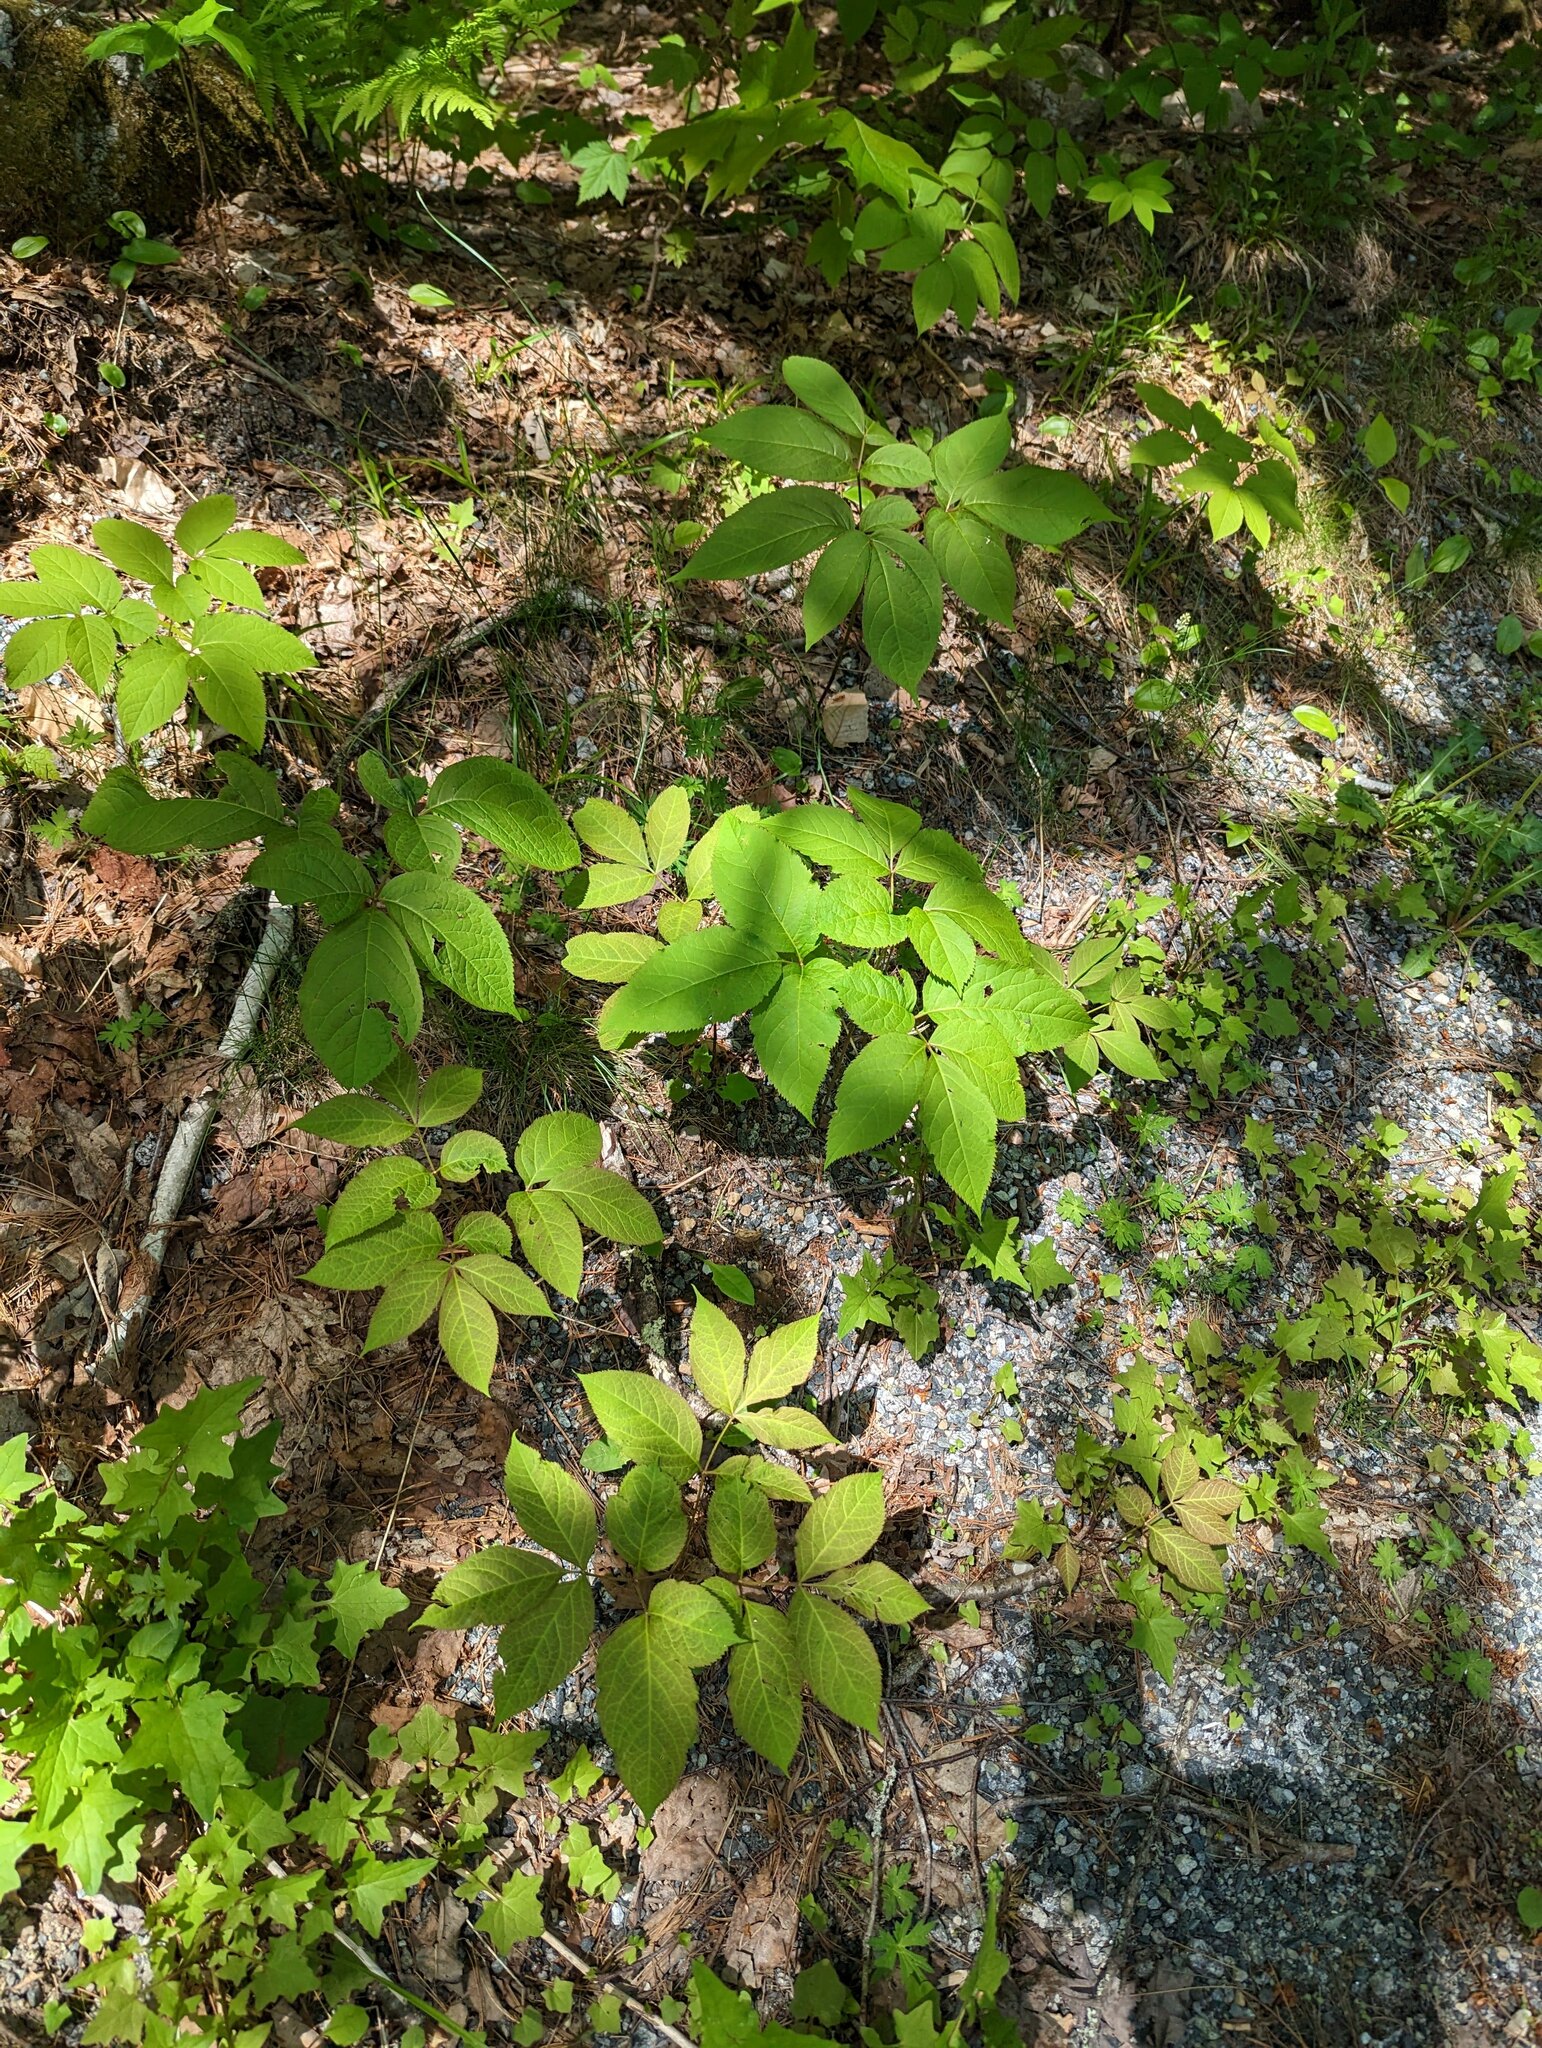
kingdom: Plantae
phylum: Tracheophyta
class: Magnoliopsida
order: Apiales
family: Araliaceae
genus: Aralia
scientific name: Aralia nudicaulis
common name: Wild sarsaparilla
